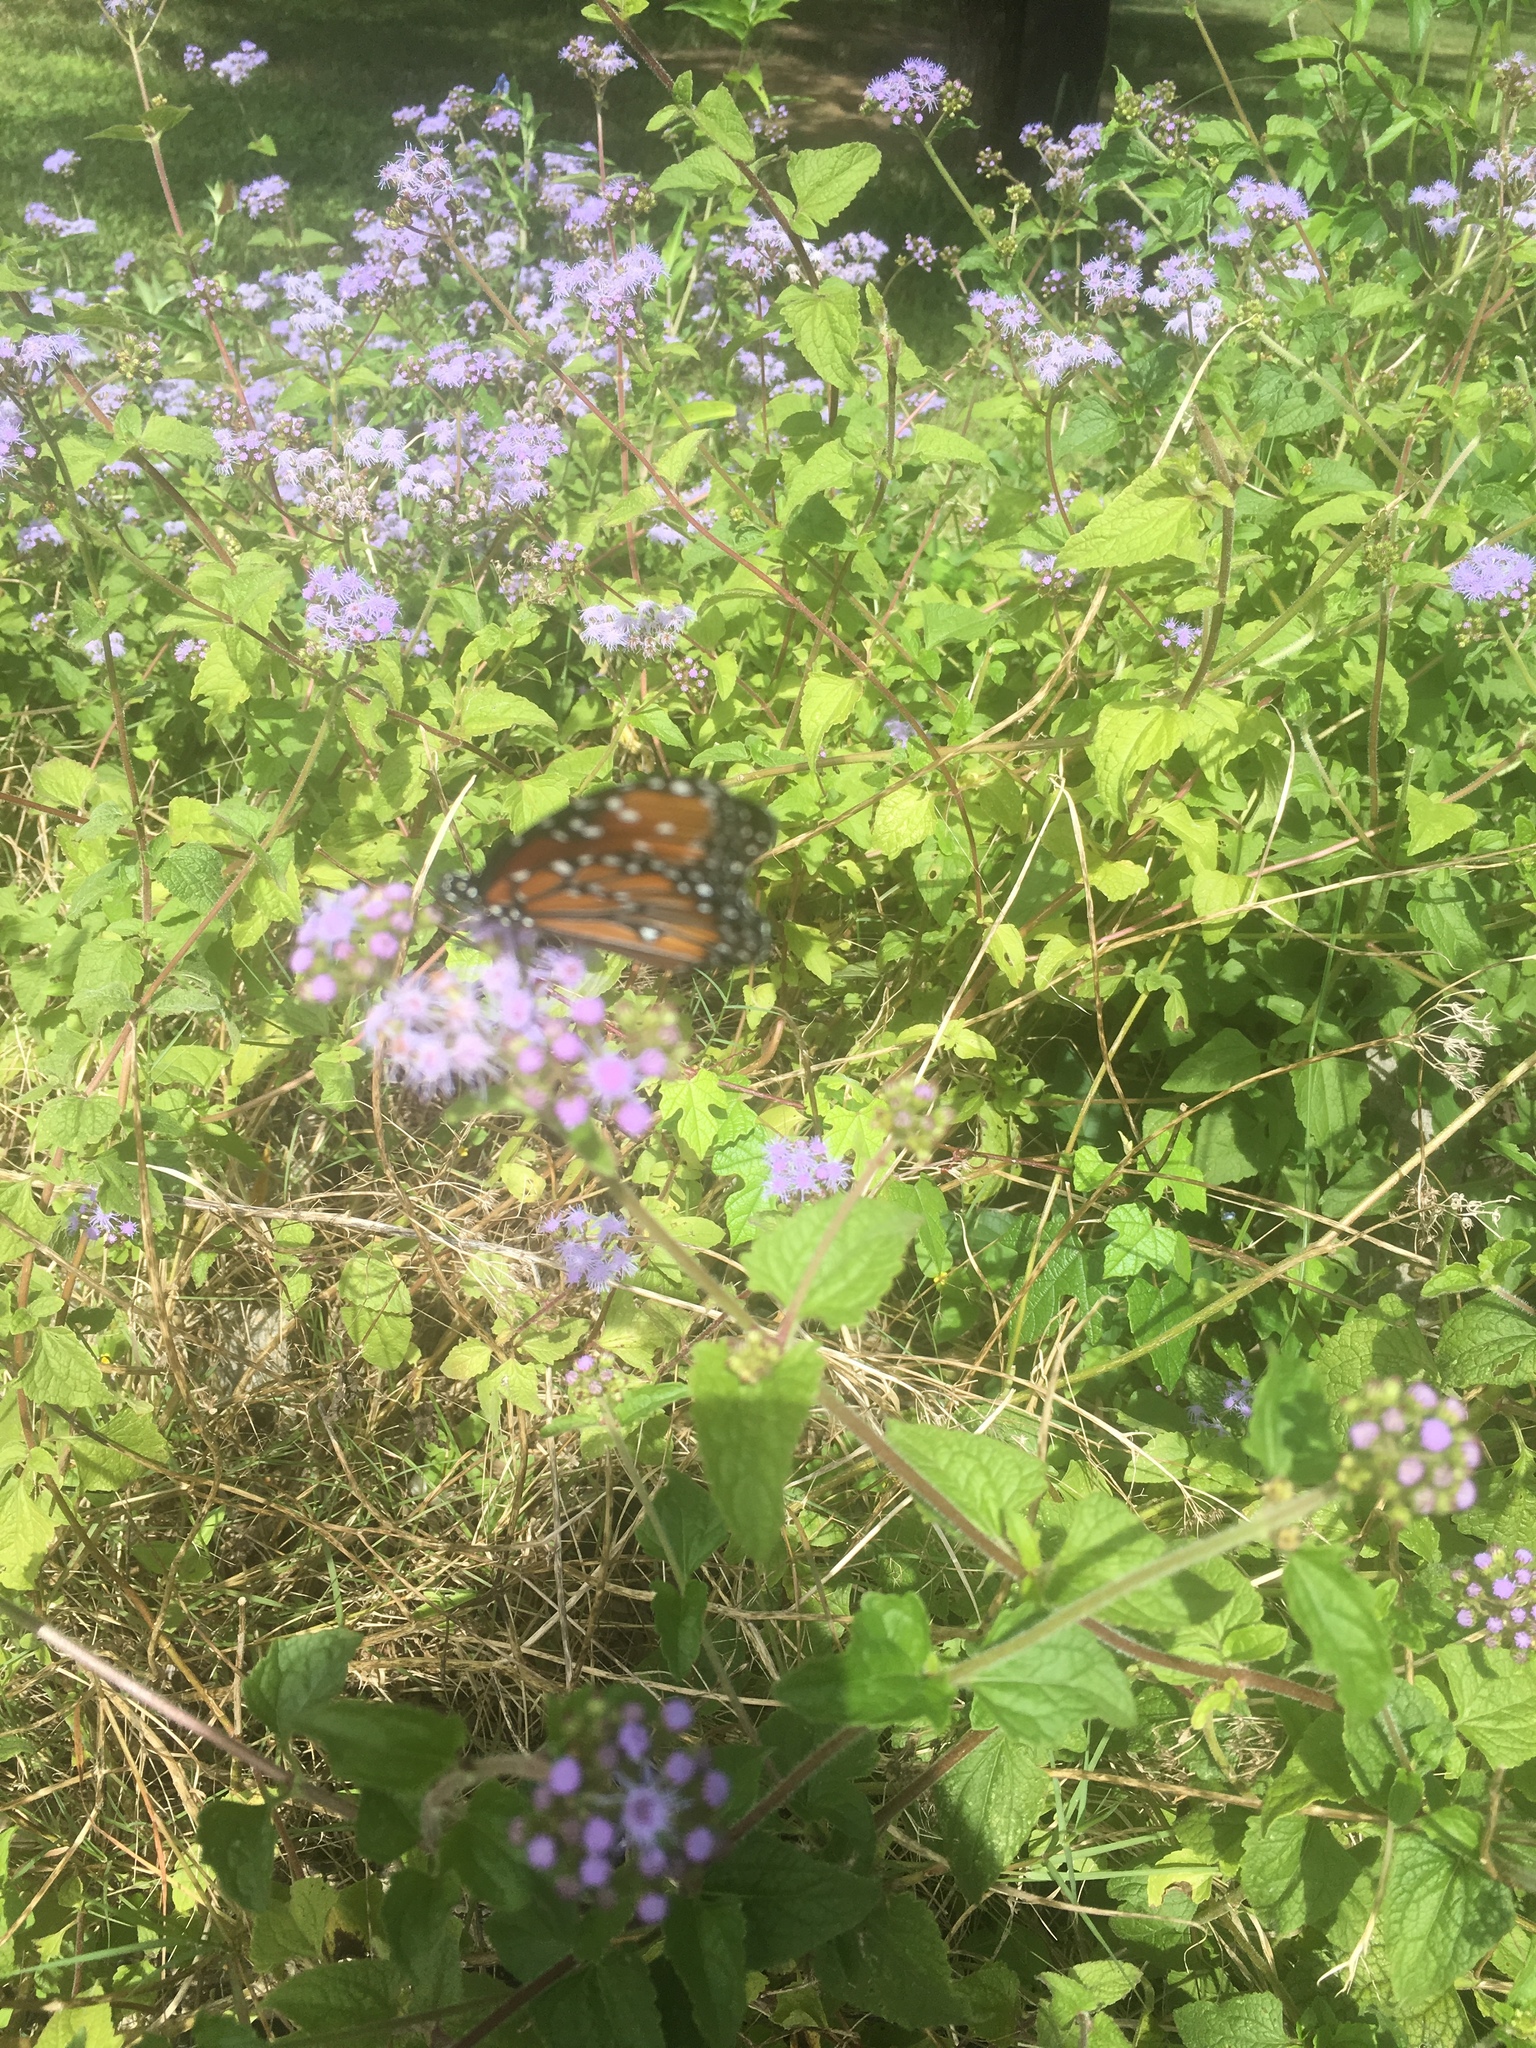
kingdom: Animalia
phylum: Arthropoda
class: Insecta
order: Lepidoptera
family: Nymphalidae
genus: Danaus
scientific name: Danaus gilippus
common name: Queen
